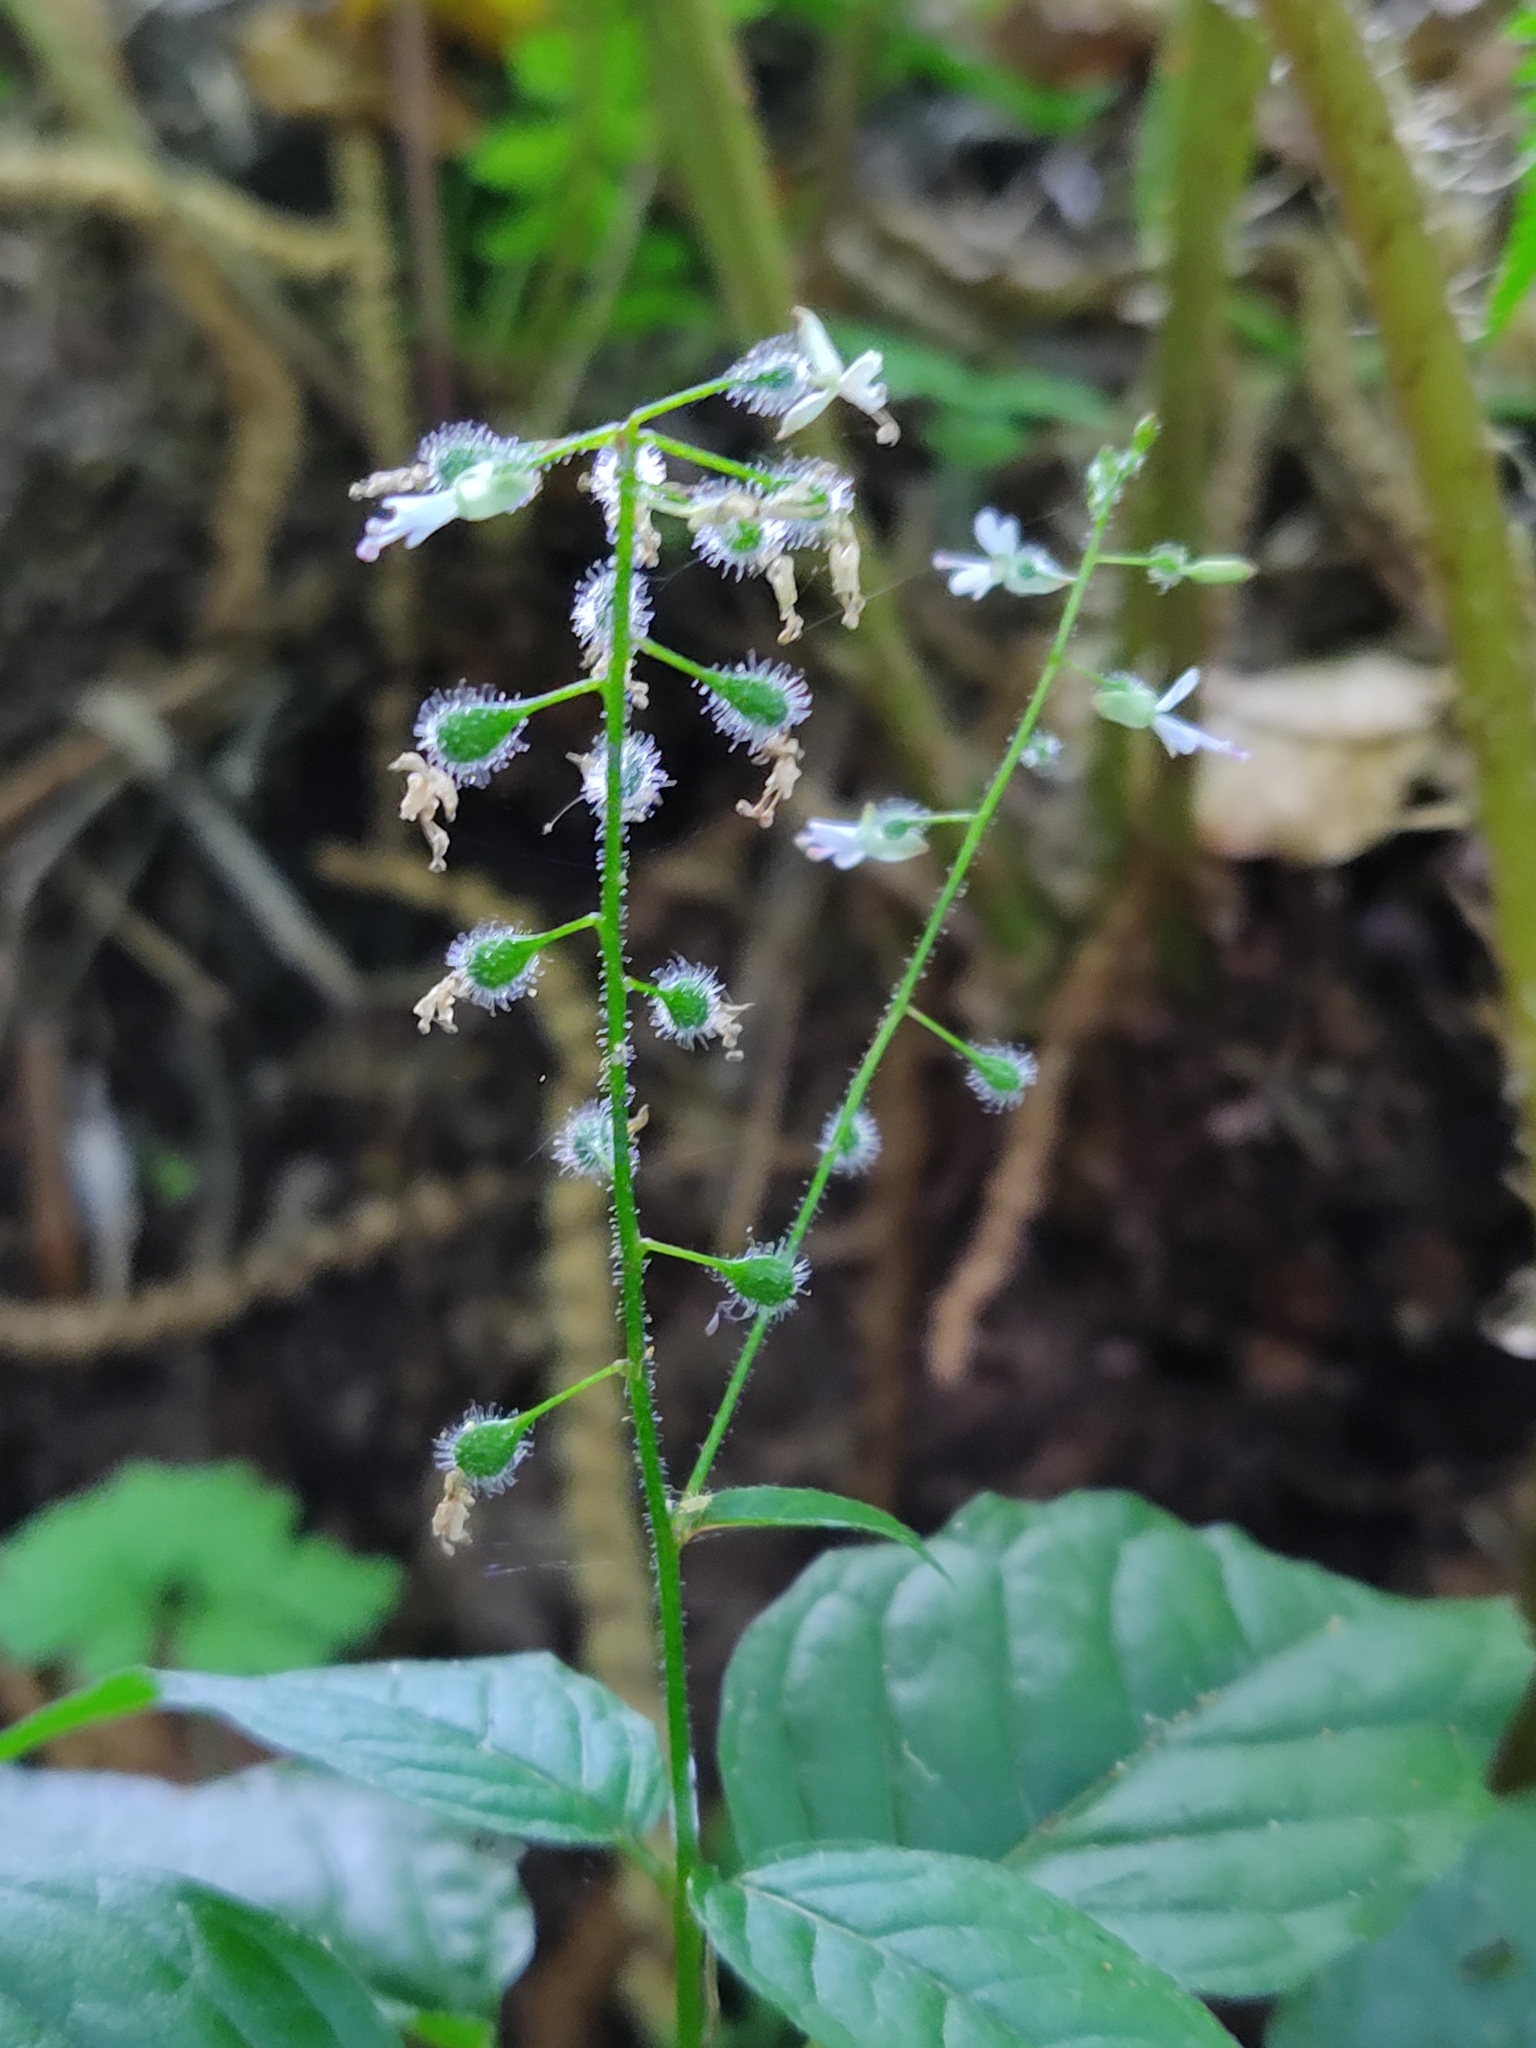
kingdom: Plantae
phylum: Tracheophyta
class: Magnoliopsida
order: Myrtales
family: Onagraceae
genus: Circaea
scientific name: Circaea lutetiana
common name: Enchanter's-nightshade
